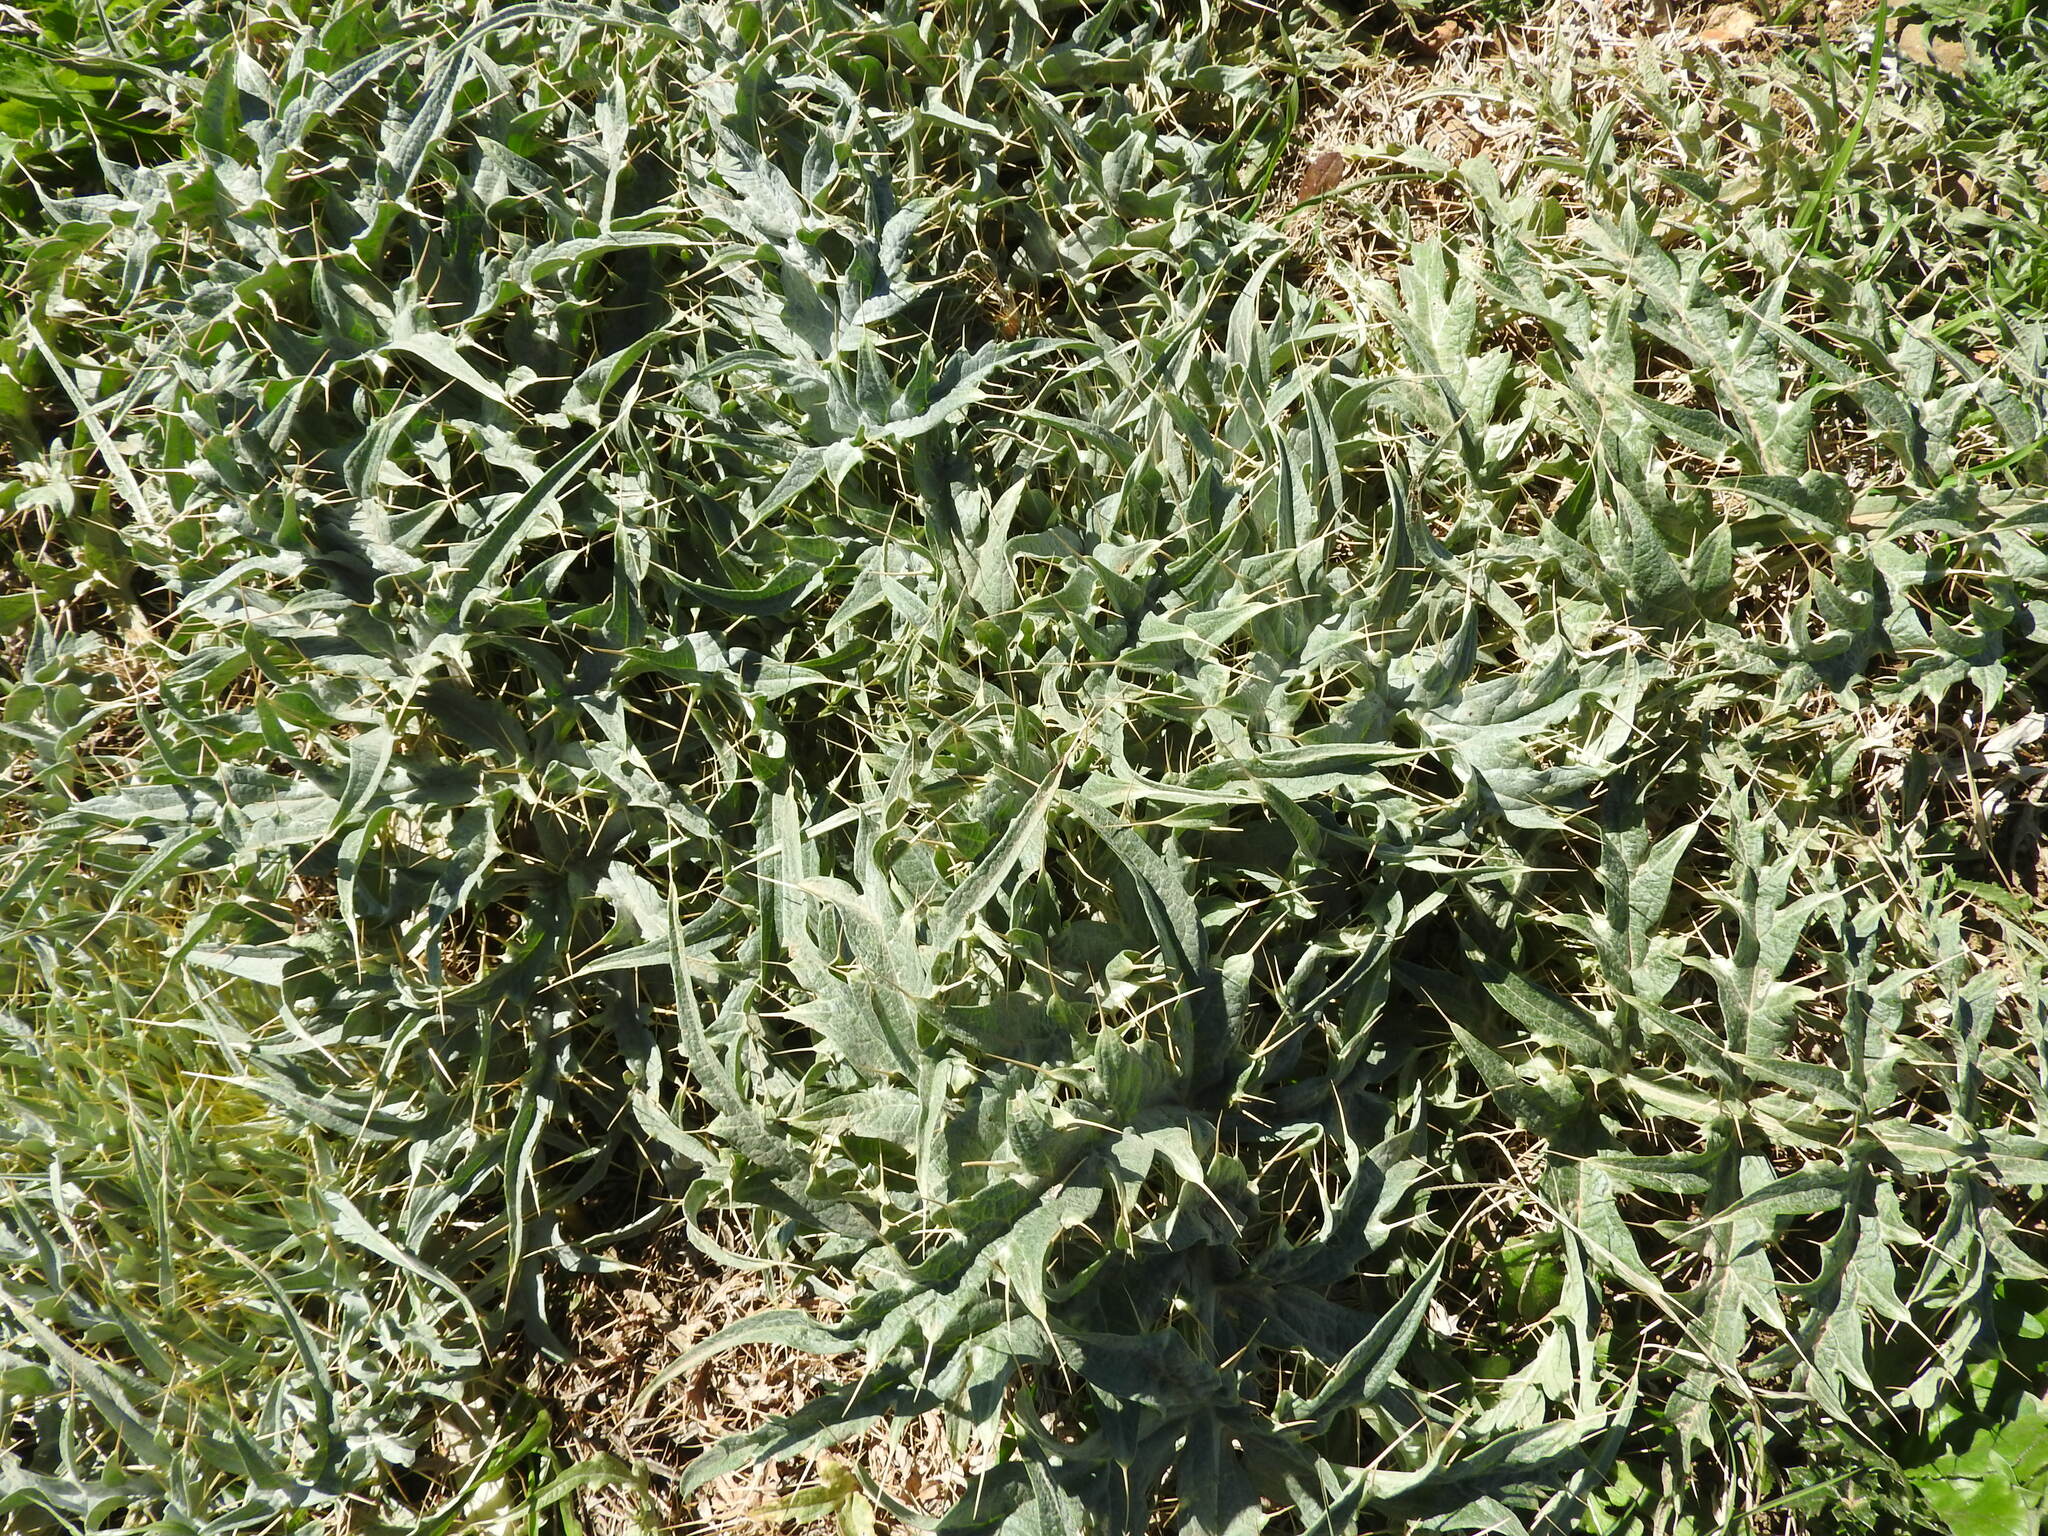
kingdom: Plantae
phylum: Tracheophyta
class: Magnoliopsida
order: Asterales
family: Asteraceae
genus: Cynara
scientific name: Cynara cardunculus
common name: Globe artichoke
